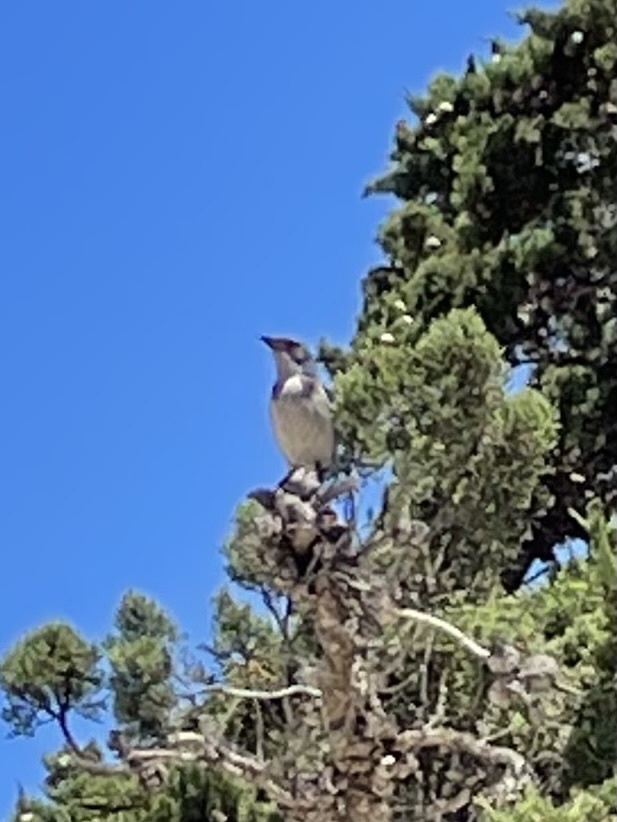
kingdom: Animalia
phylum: Chordata
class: Aves
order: Passeriformes
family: Corvidae
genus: Aphelocoma
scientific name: Aphelocoma californica
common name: California scrub-jay
